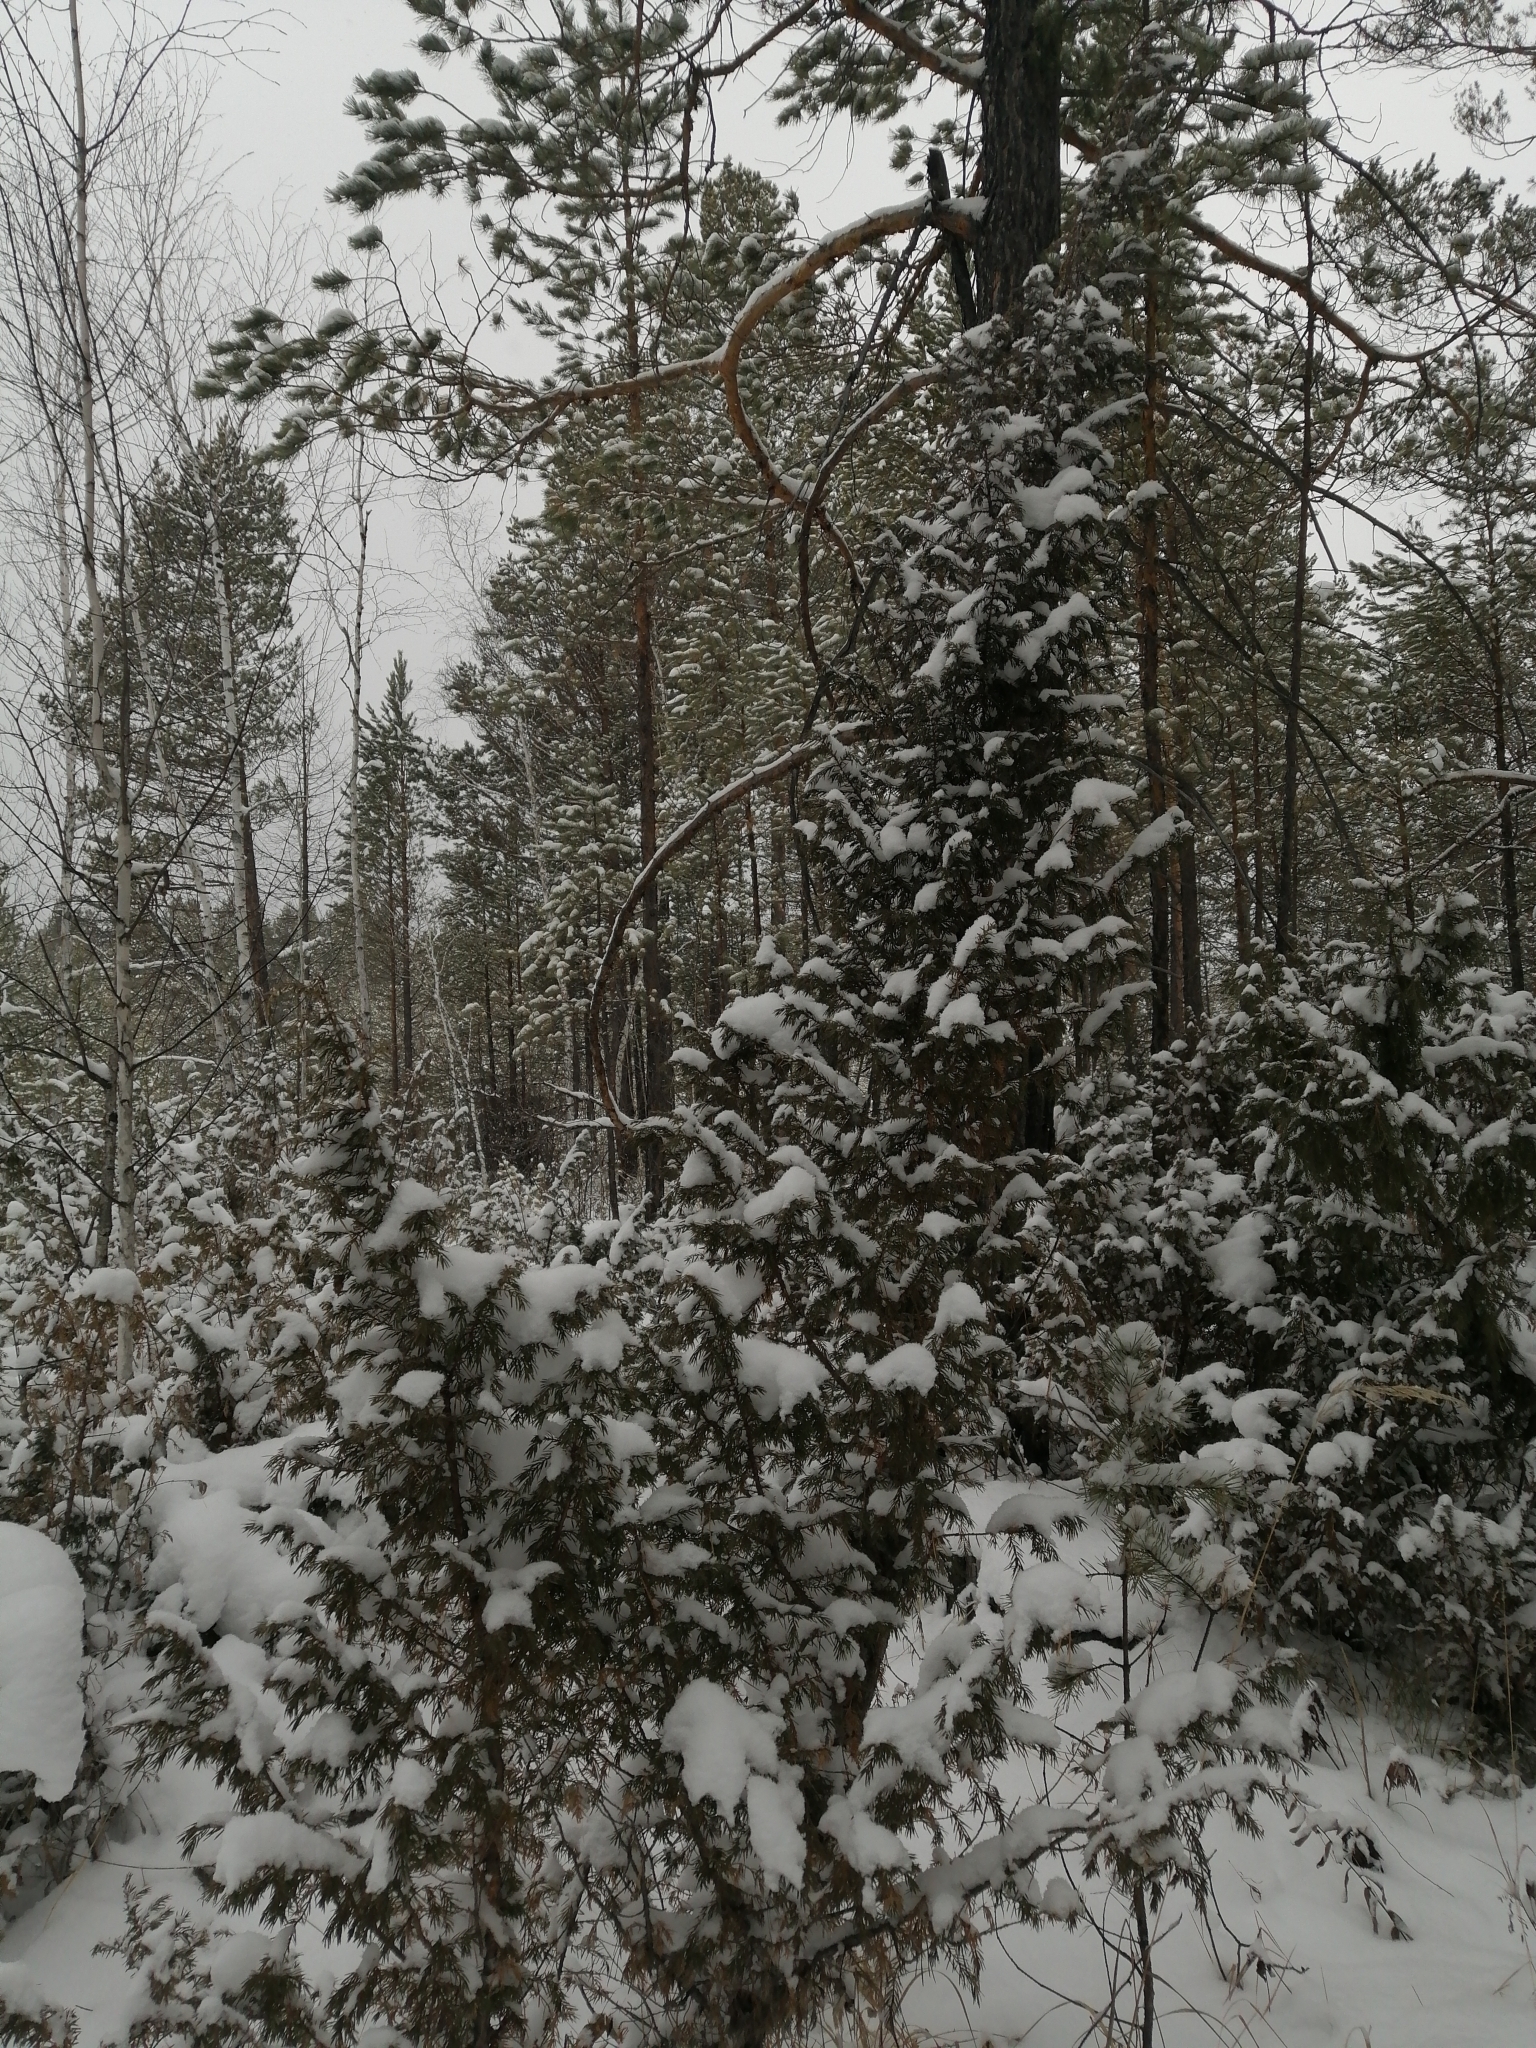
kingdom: Plantae
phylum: Tracheophyta
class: Pinopsida
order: Pinales
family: Cupressaceae
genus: Juniperus
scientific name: Juniperus communis
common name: Common juniper
